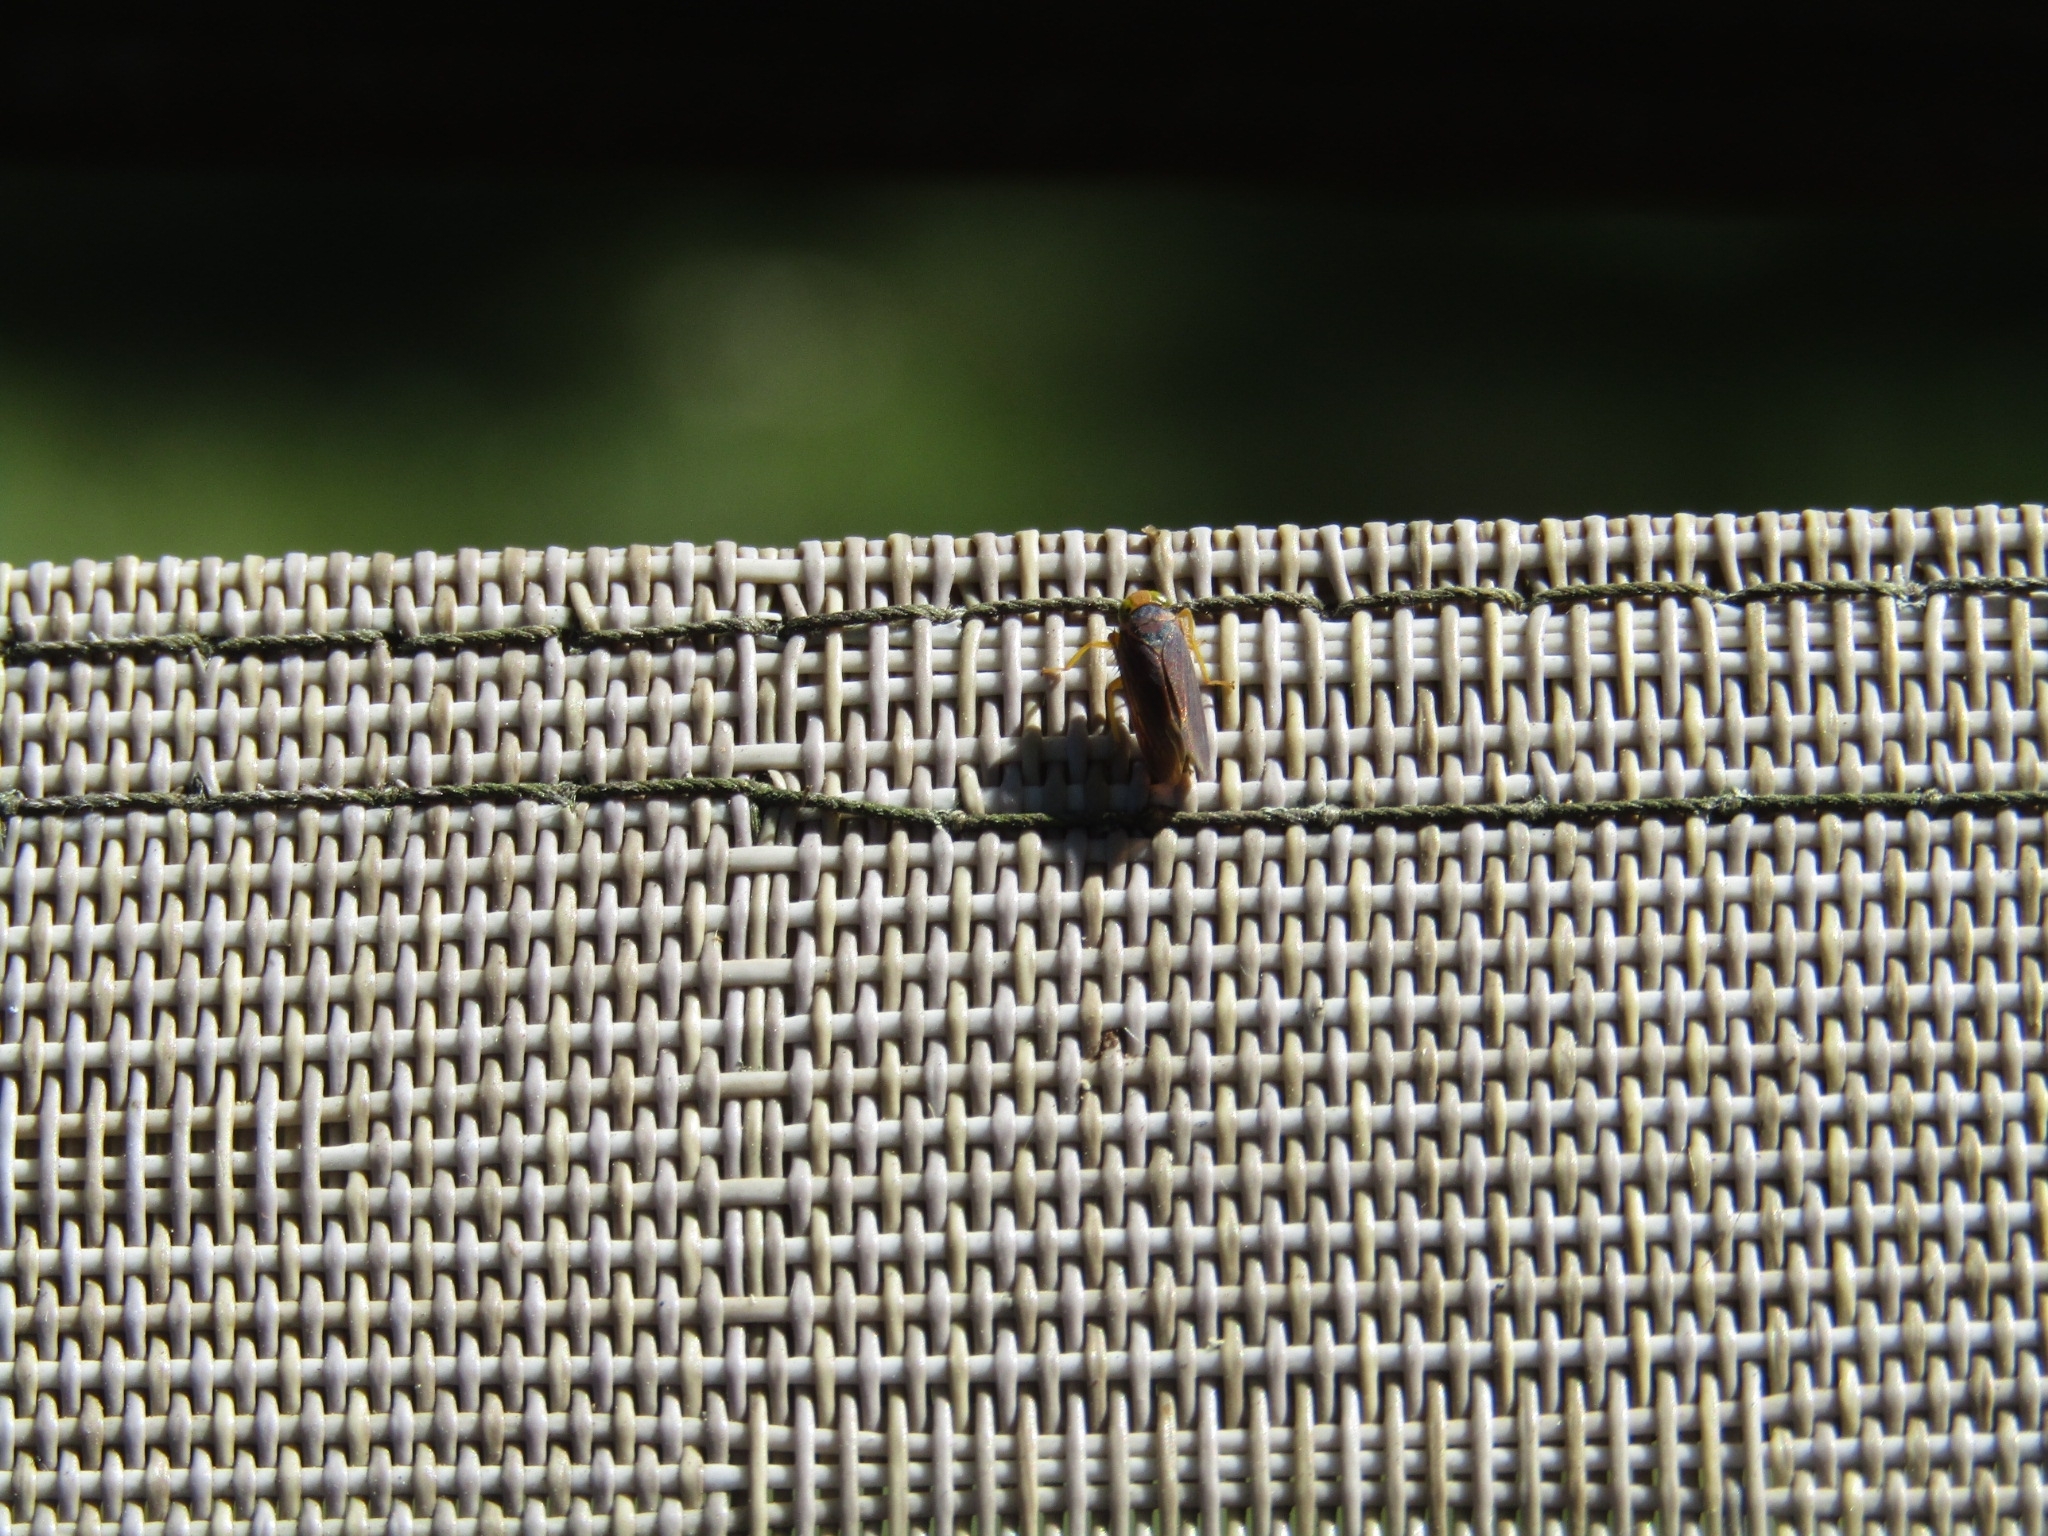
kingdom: Animalia
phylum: Arthropoda
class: Insecta
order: Hemiptera
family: Cicadellidae
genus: Jikradia
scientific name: Jikradia olitoria
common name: Coppery leafhopper
